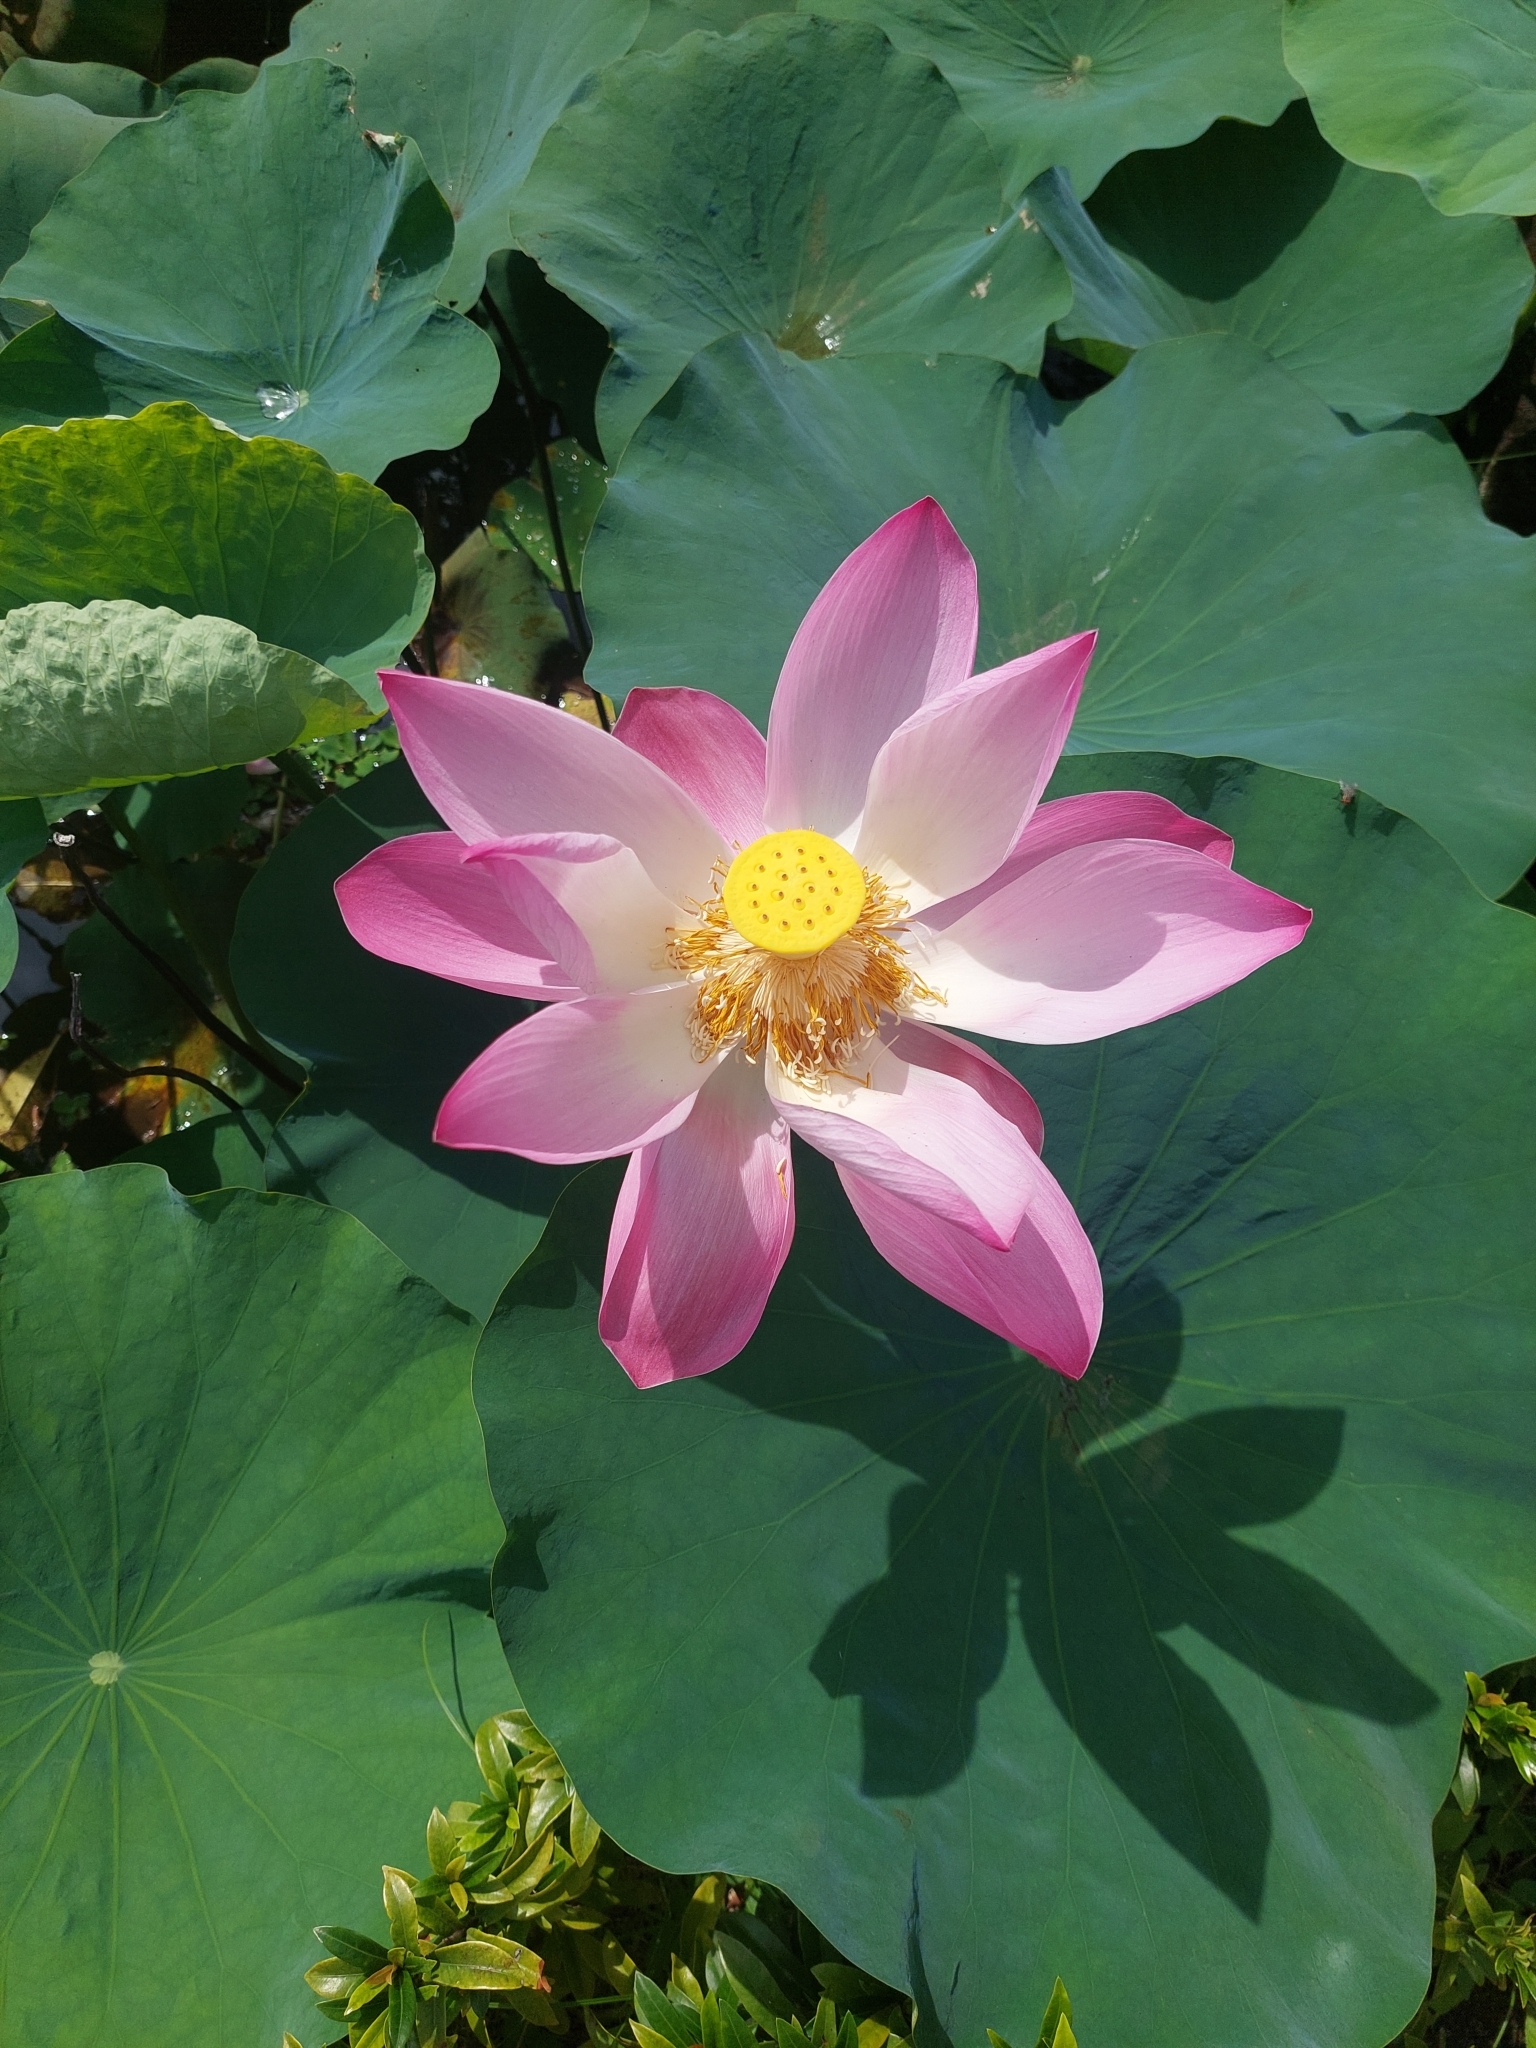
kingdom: Plantae
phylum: Tracheophyta
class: Magnoliopsida
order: Proteales
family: Nelumbonaceae
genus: Nelumbo
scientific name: Nelumbo nucifera
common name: Sacred lotus
